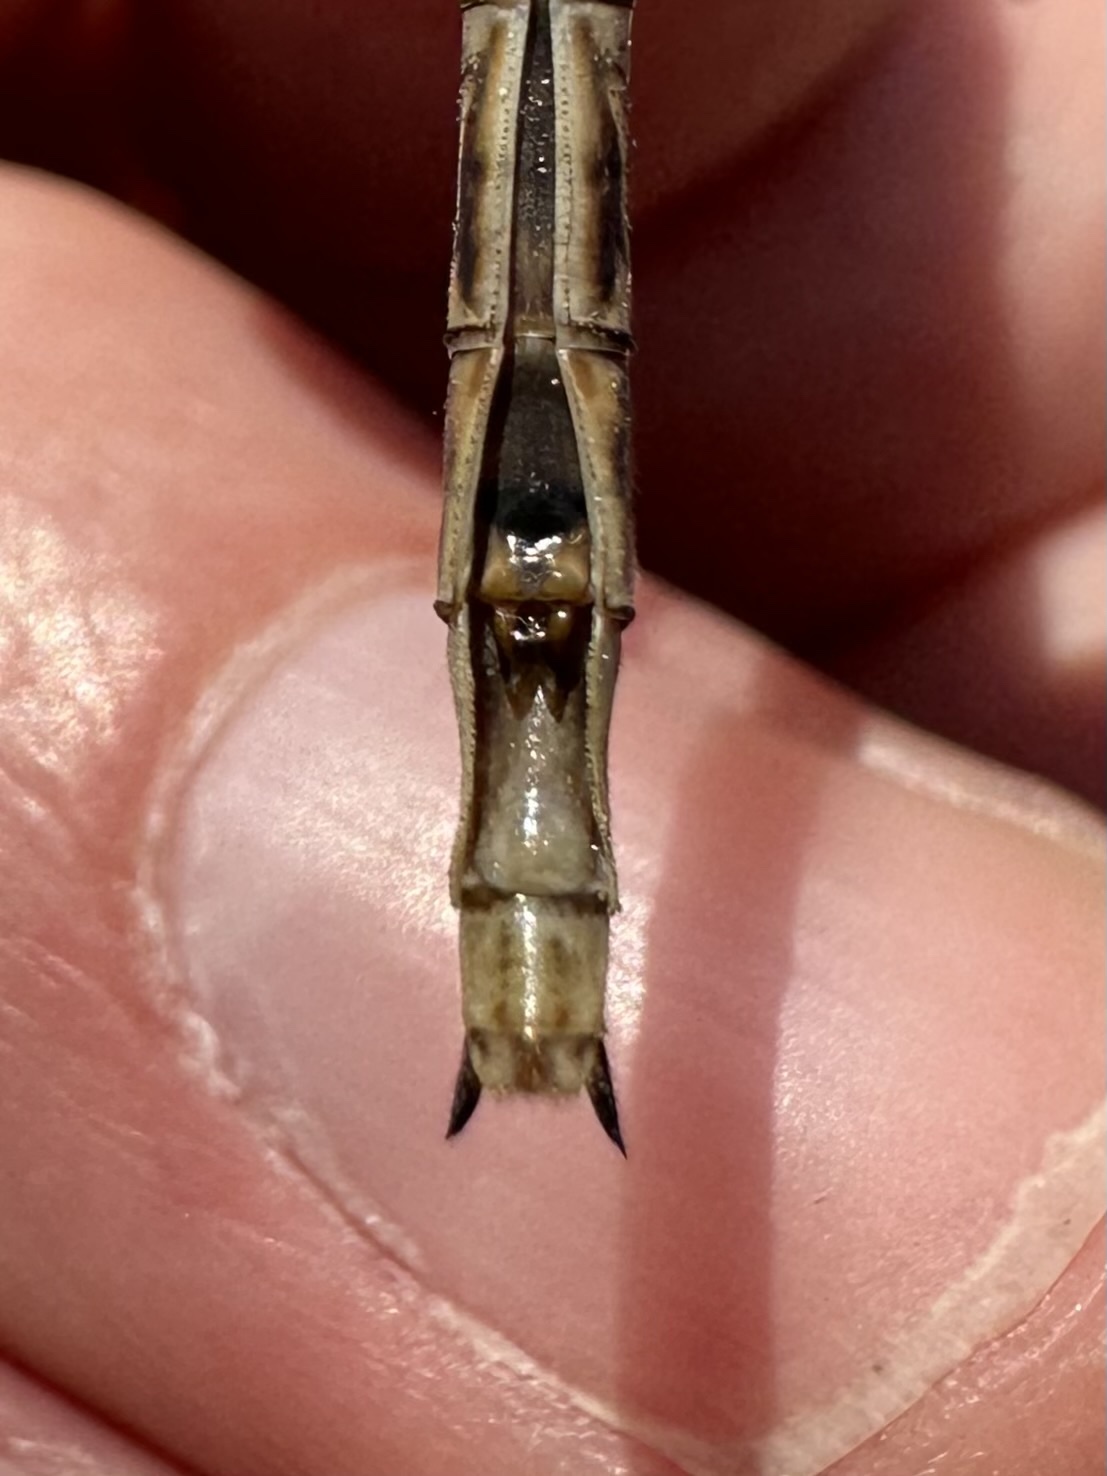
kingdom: Animalia
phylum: Arthropoda
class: Insecta
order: Odonata
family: Gomphidae
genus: Phanogomphus
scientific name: Phanogomphus spicatus
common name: Dusky clubtail
